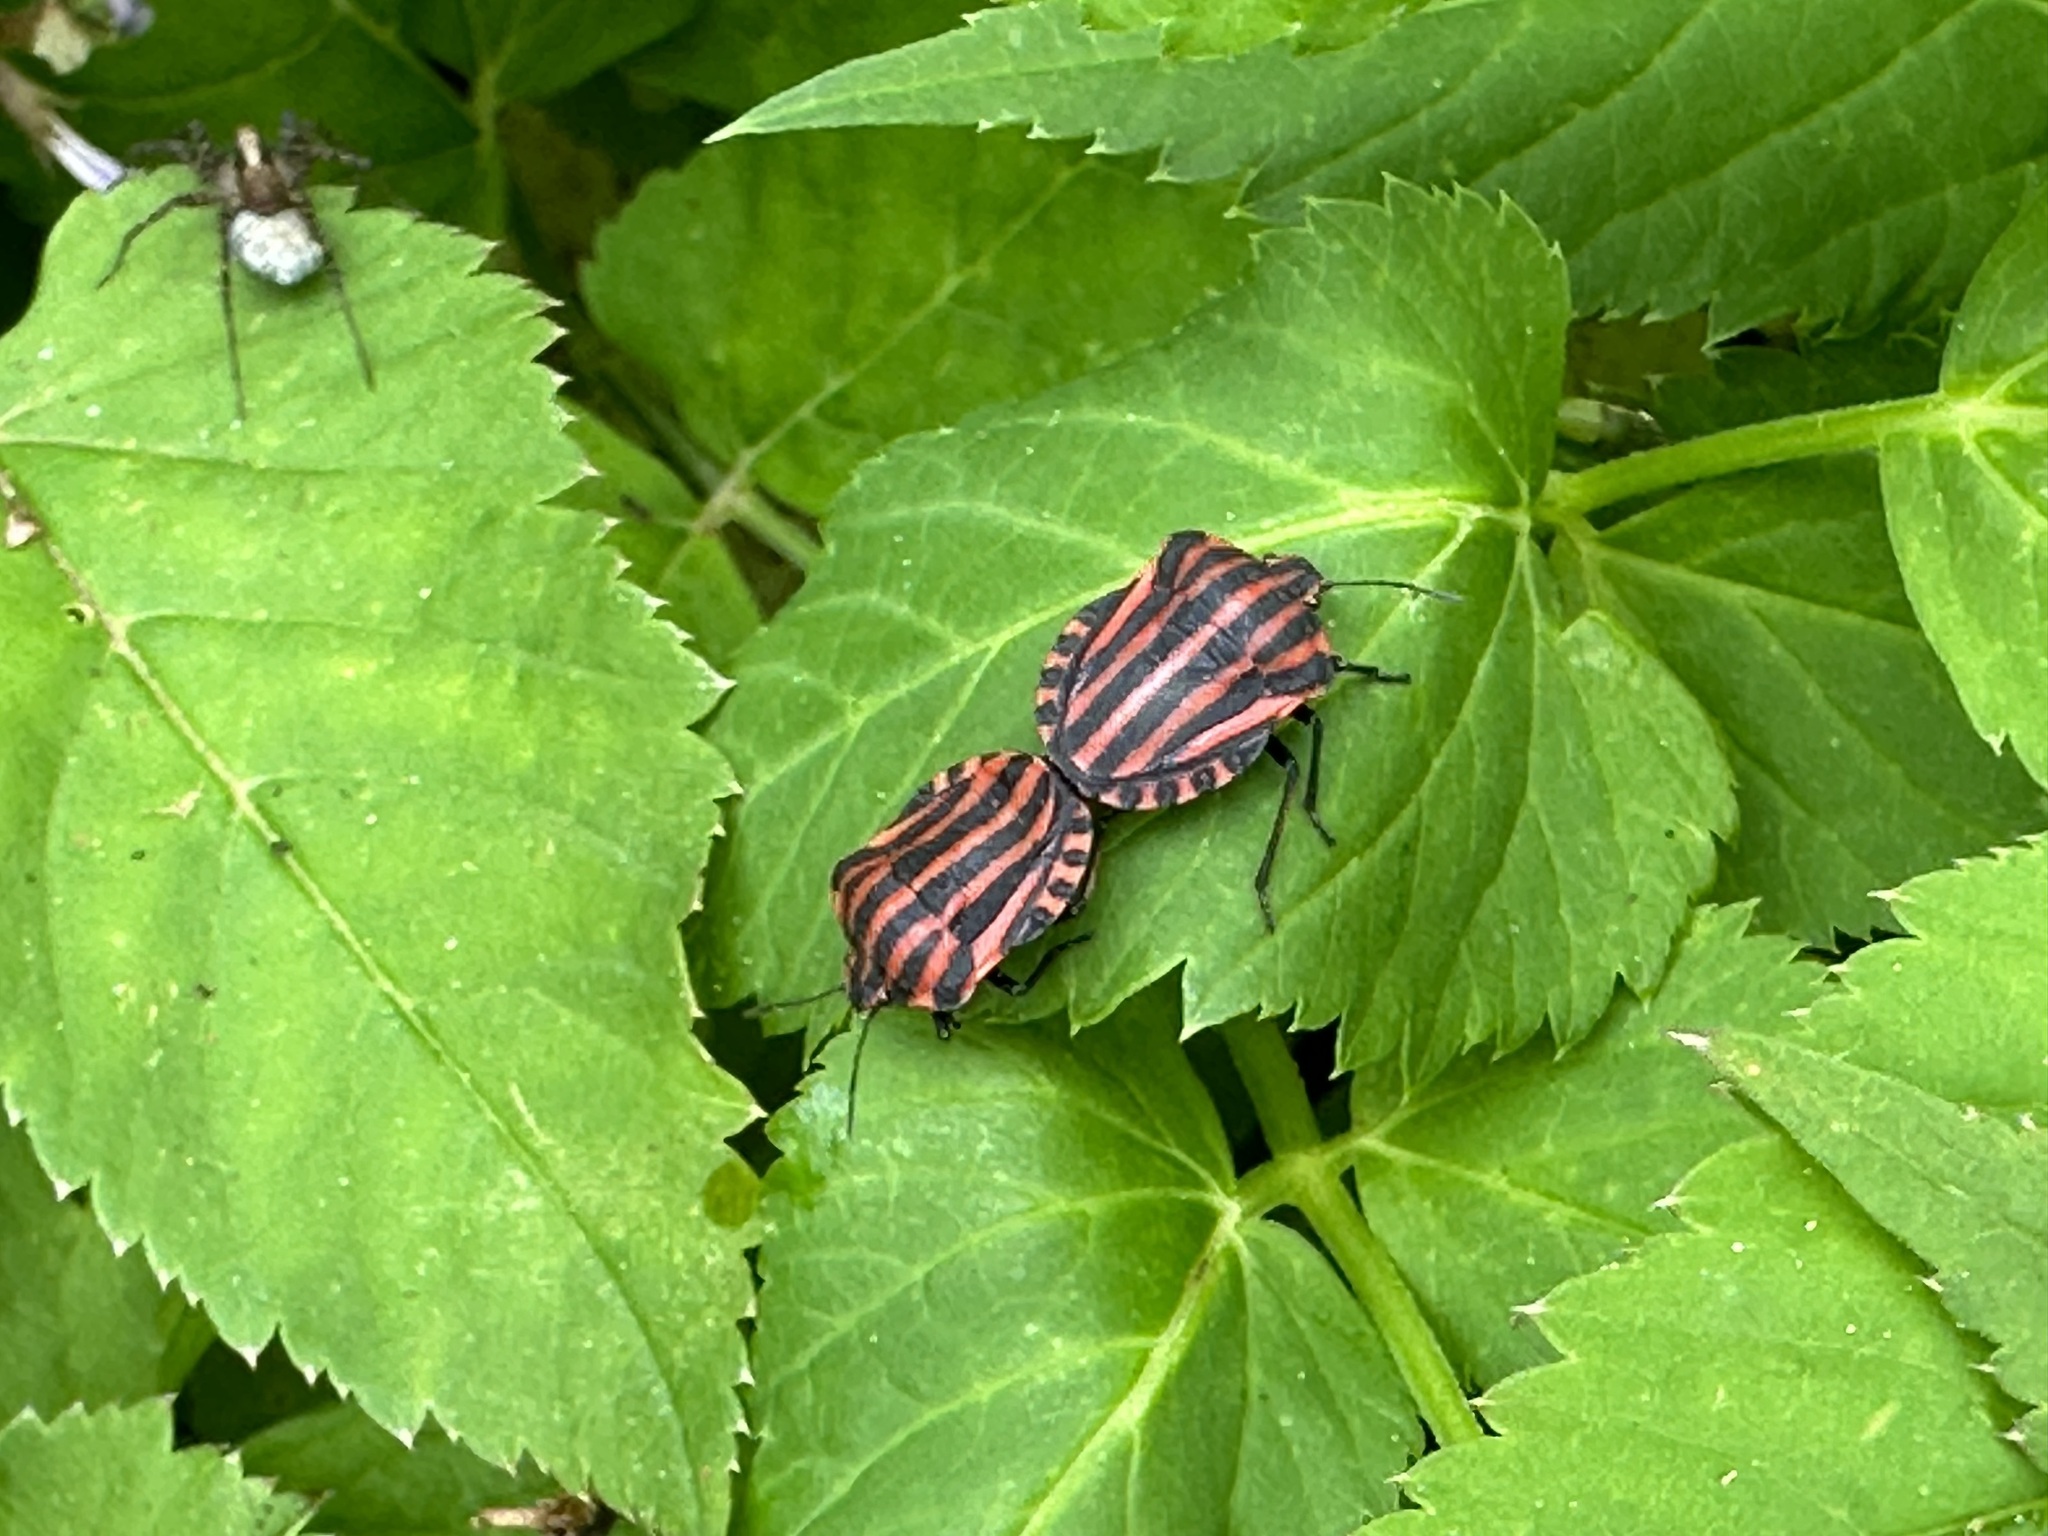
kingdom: Animalia
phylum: Arthropoda
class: Insecta
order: Hemiptera
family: Pentatomidae
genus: Graphosoma
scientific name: Graphosoma italicum
